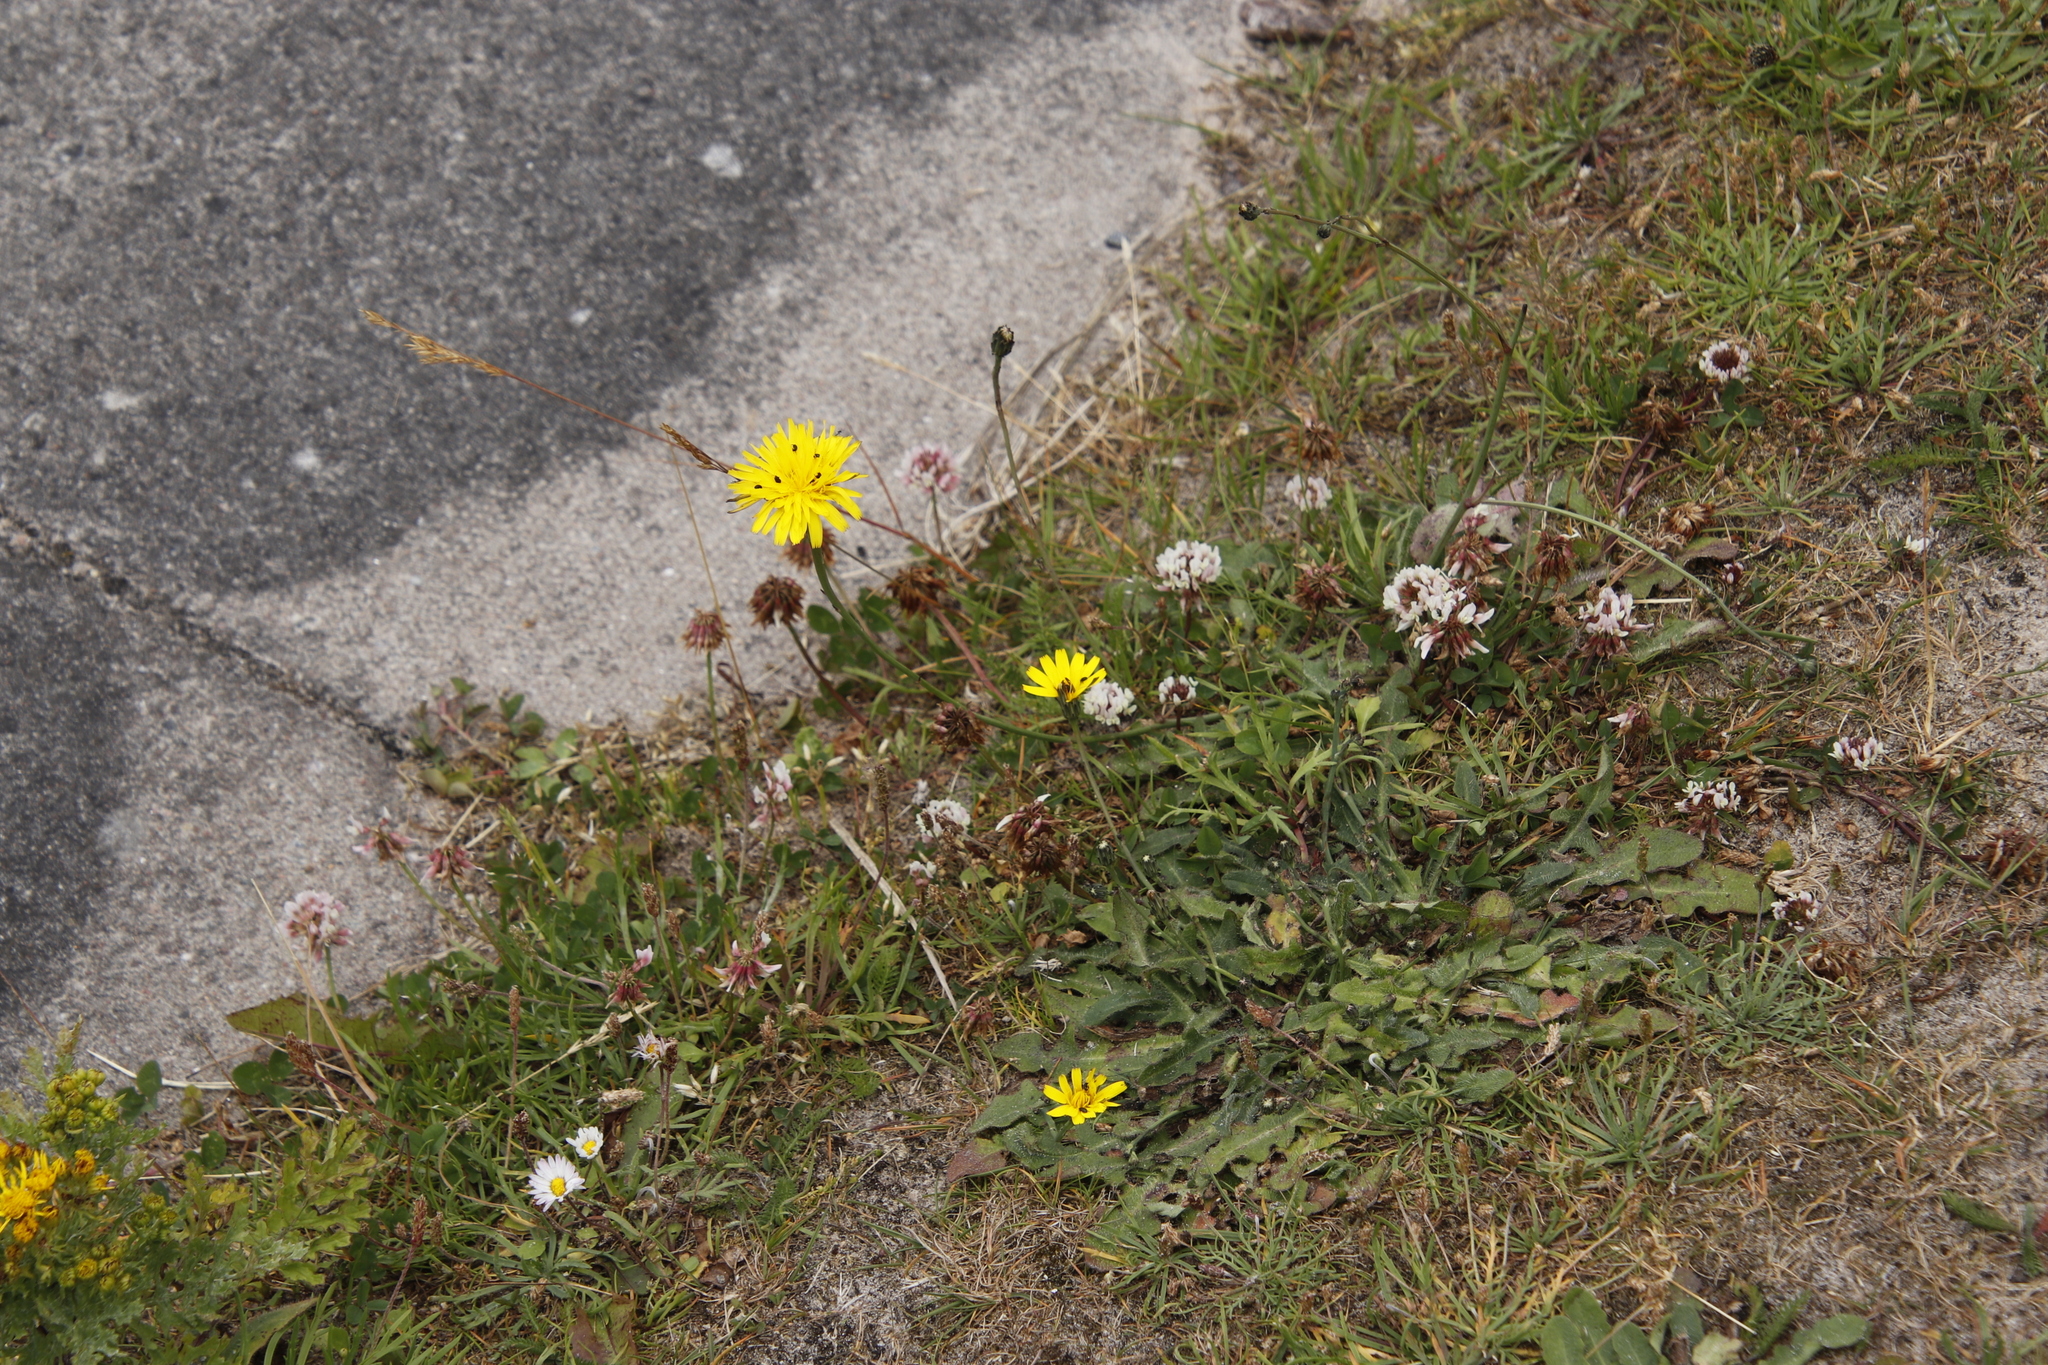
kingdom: Plantae
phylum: Tracheophyta
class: Magnoliopsida
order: Asterales
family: Asteraceae
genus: Hypochaeris
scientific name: Hypochaeris radicata
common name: Flatweed
